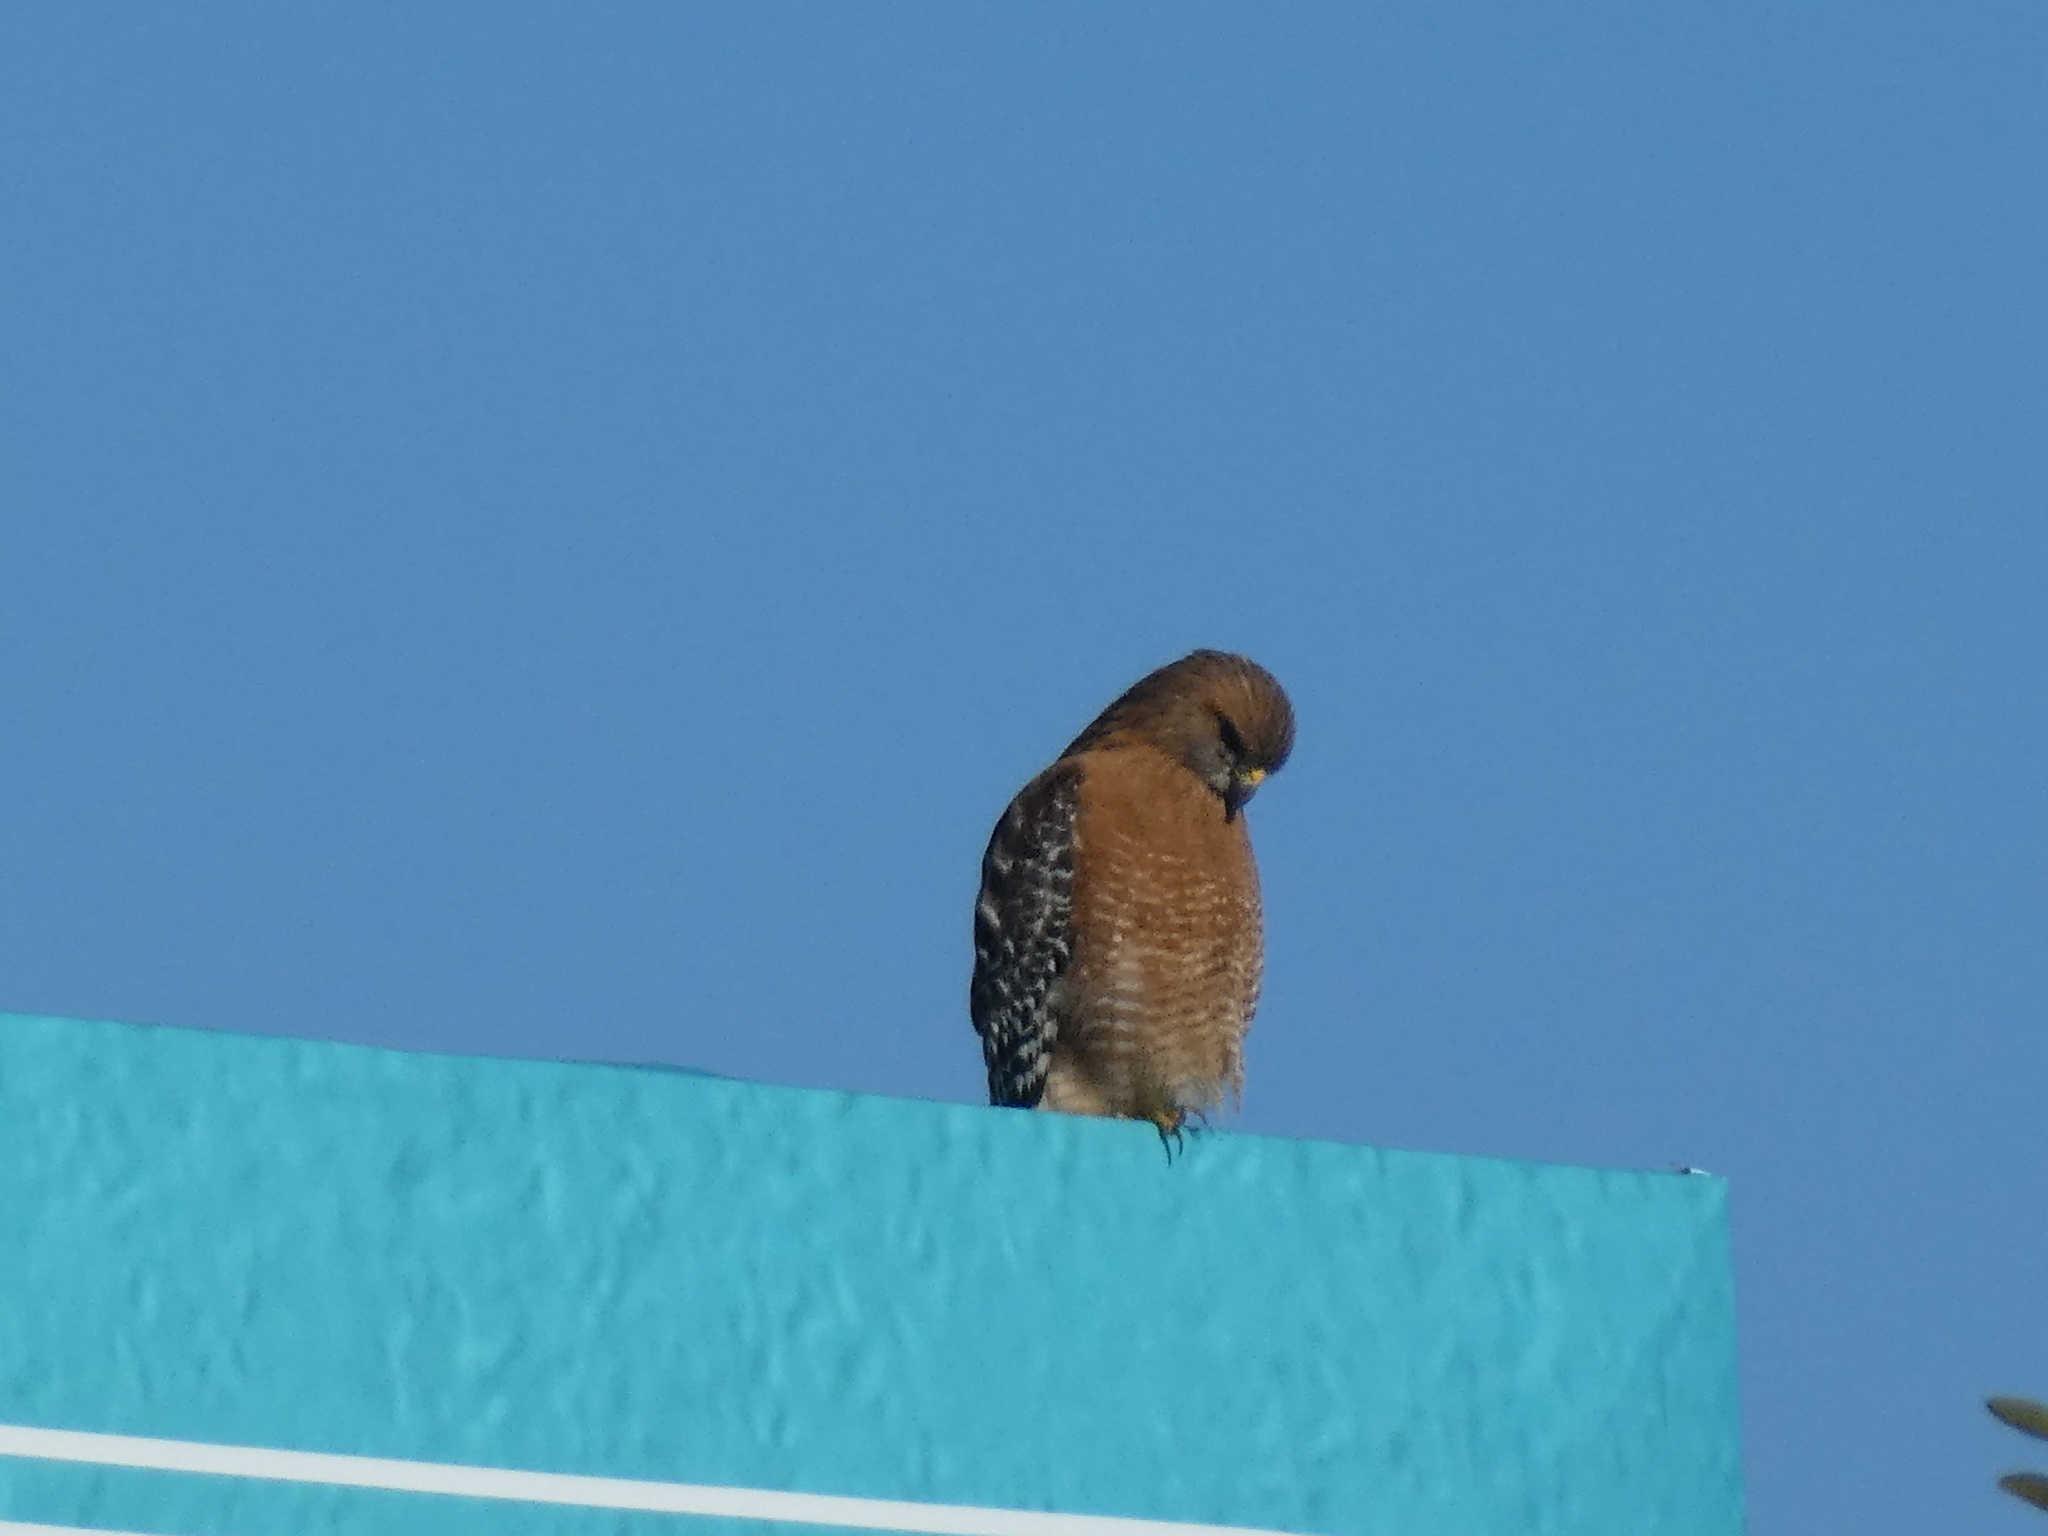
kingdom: Animalia
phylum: Chordata
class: Aves
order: Accipitriformes
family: Accipitridae
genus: Buteo
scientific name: Buteo lineatus
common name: Red-shouldered hawk
